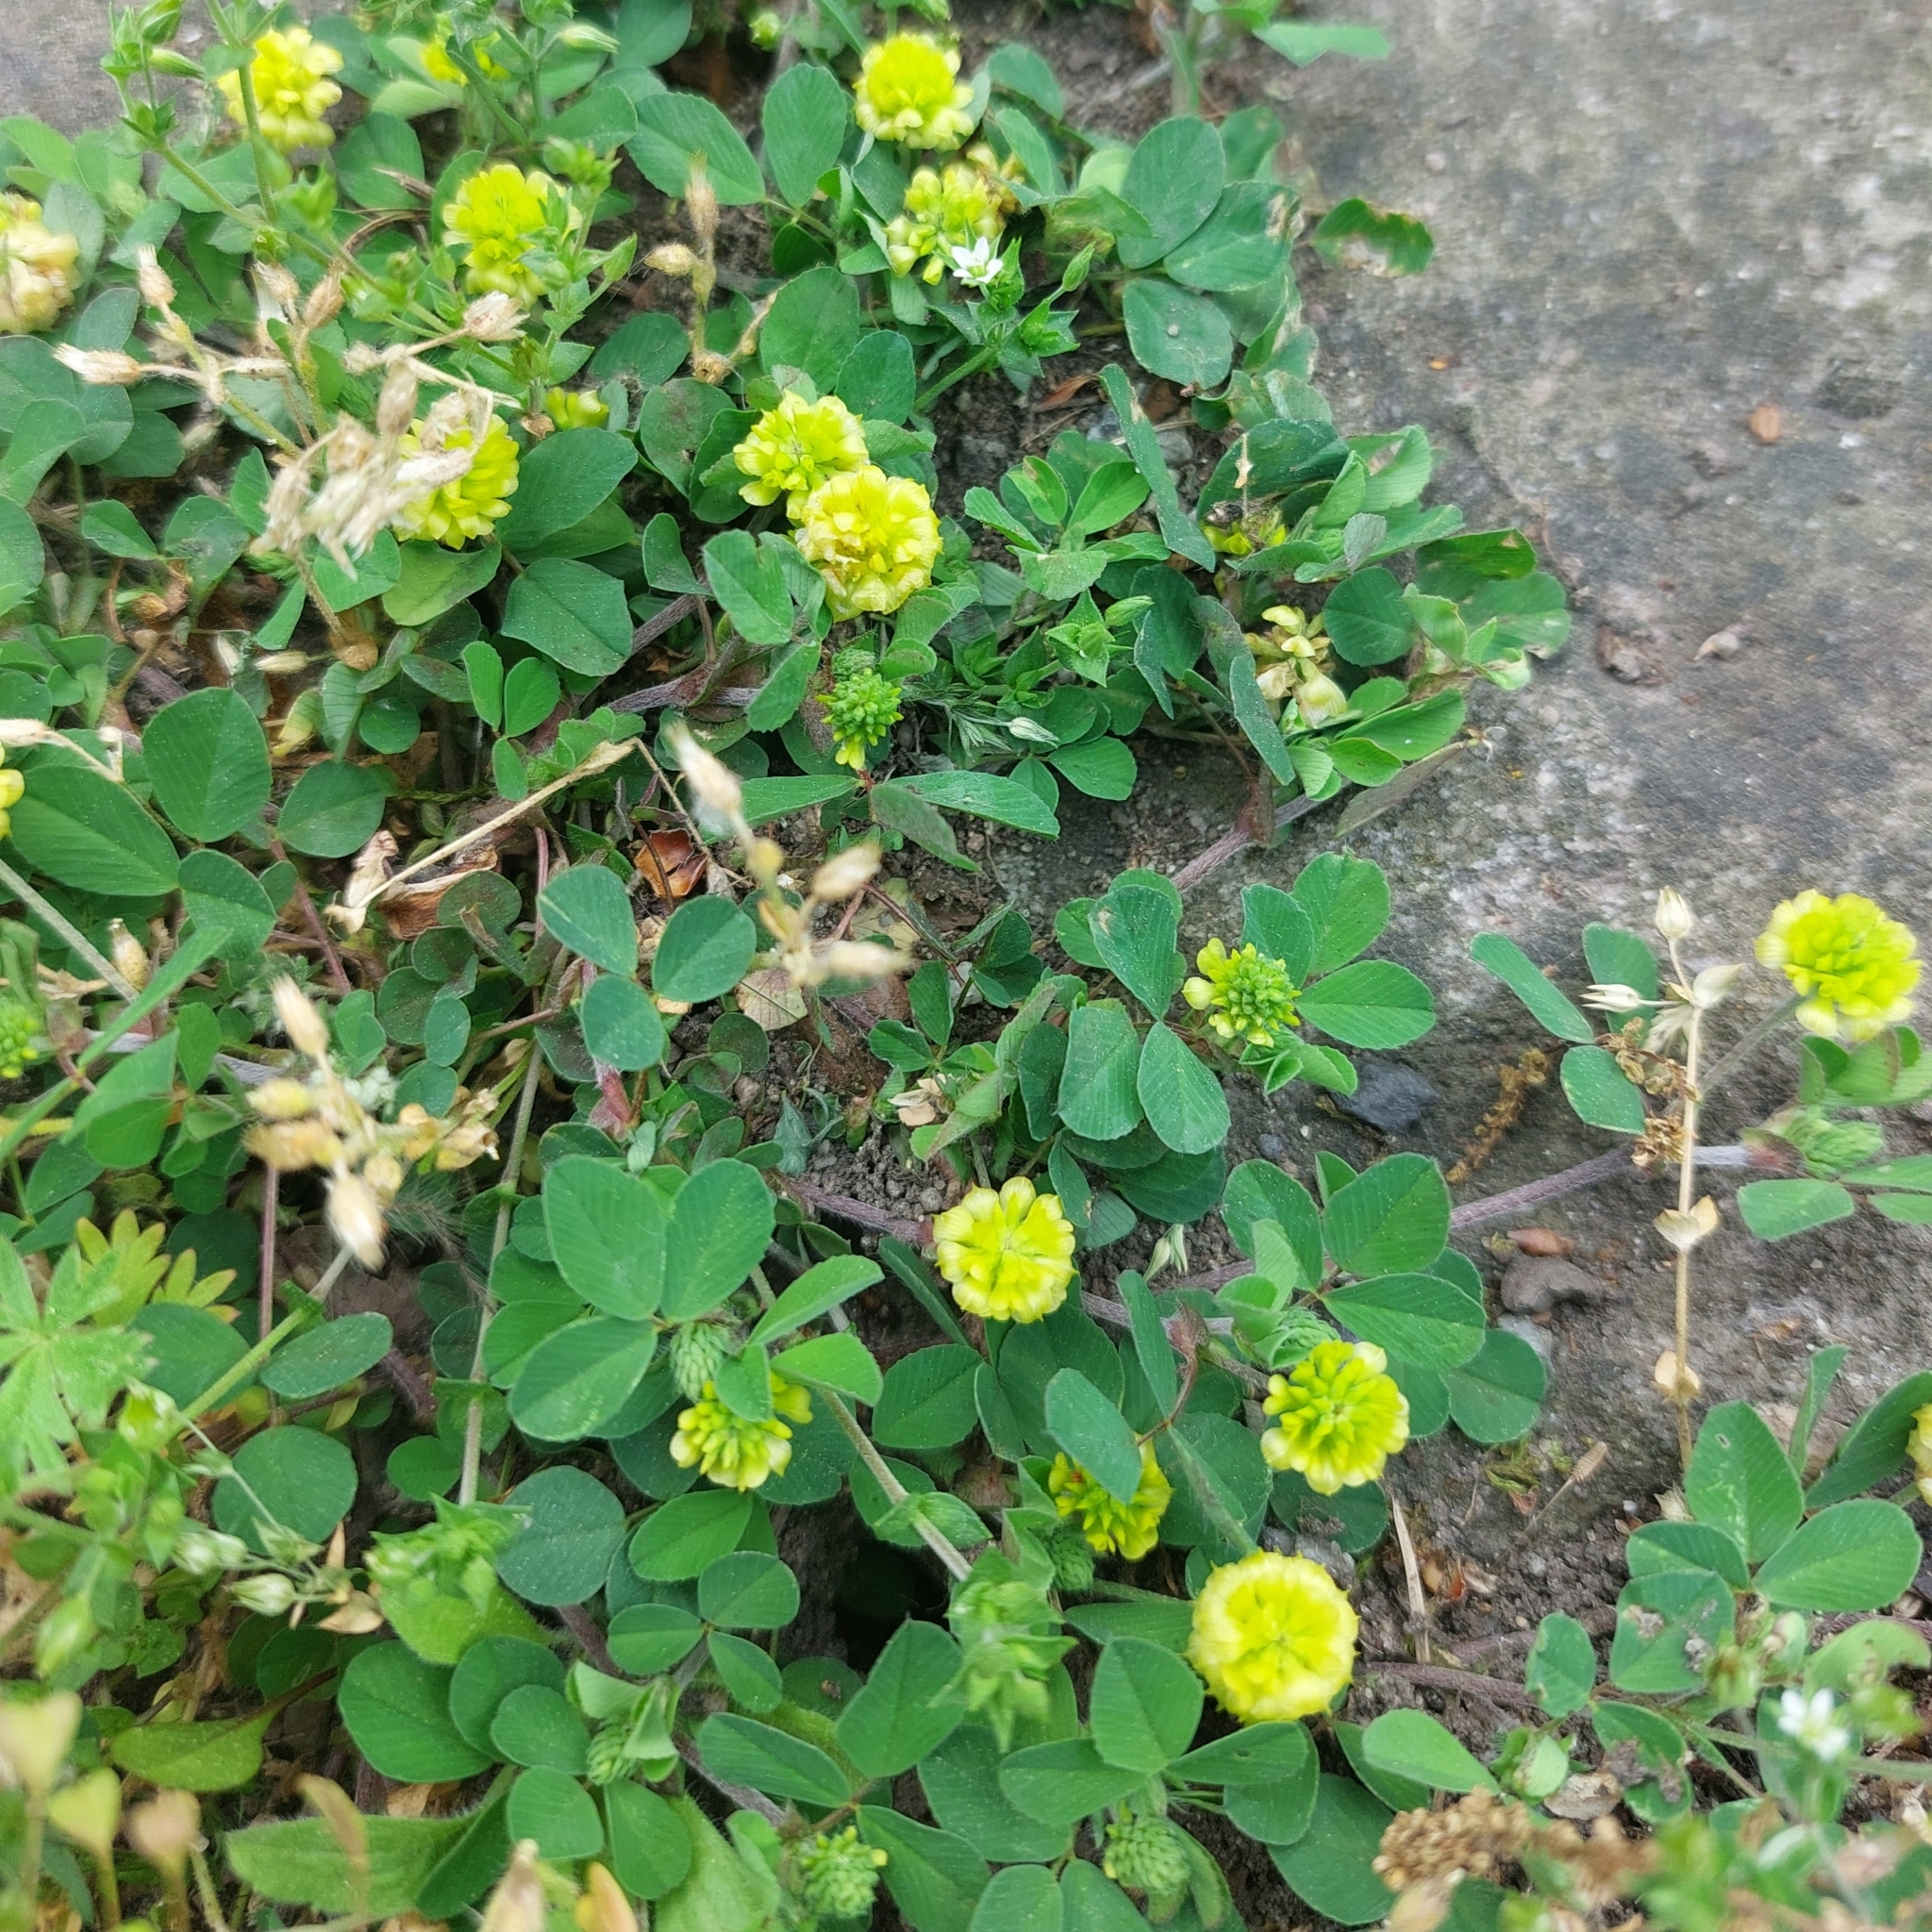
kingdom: Plantae
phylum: Tracheophyta
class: Magnoliopsida
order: Fabales
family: Fabaceae
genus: Trifolium
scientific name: Trifolium campestre
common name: Field clover
